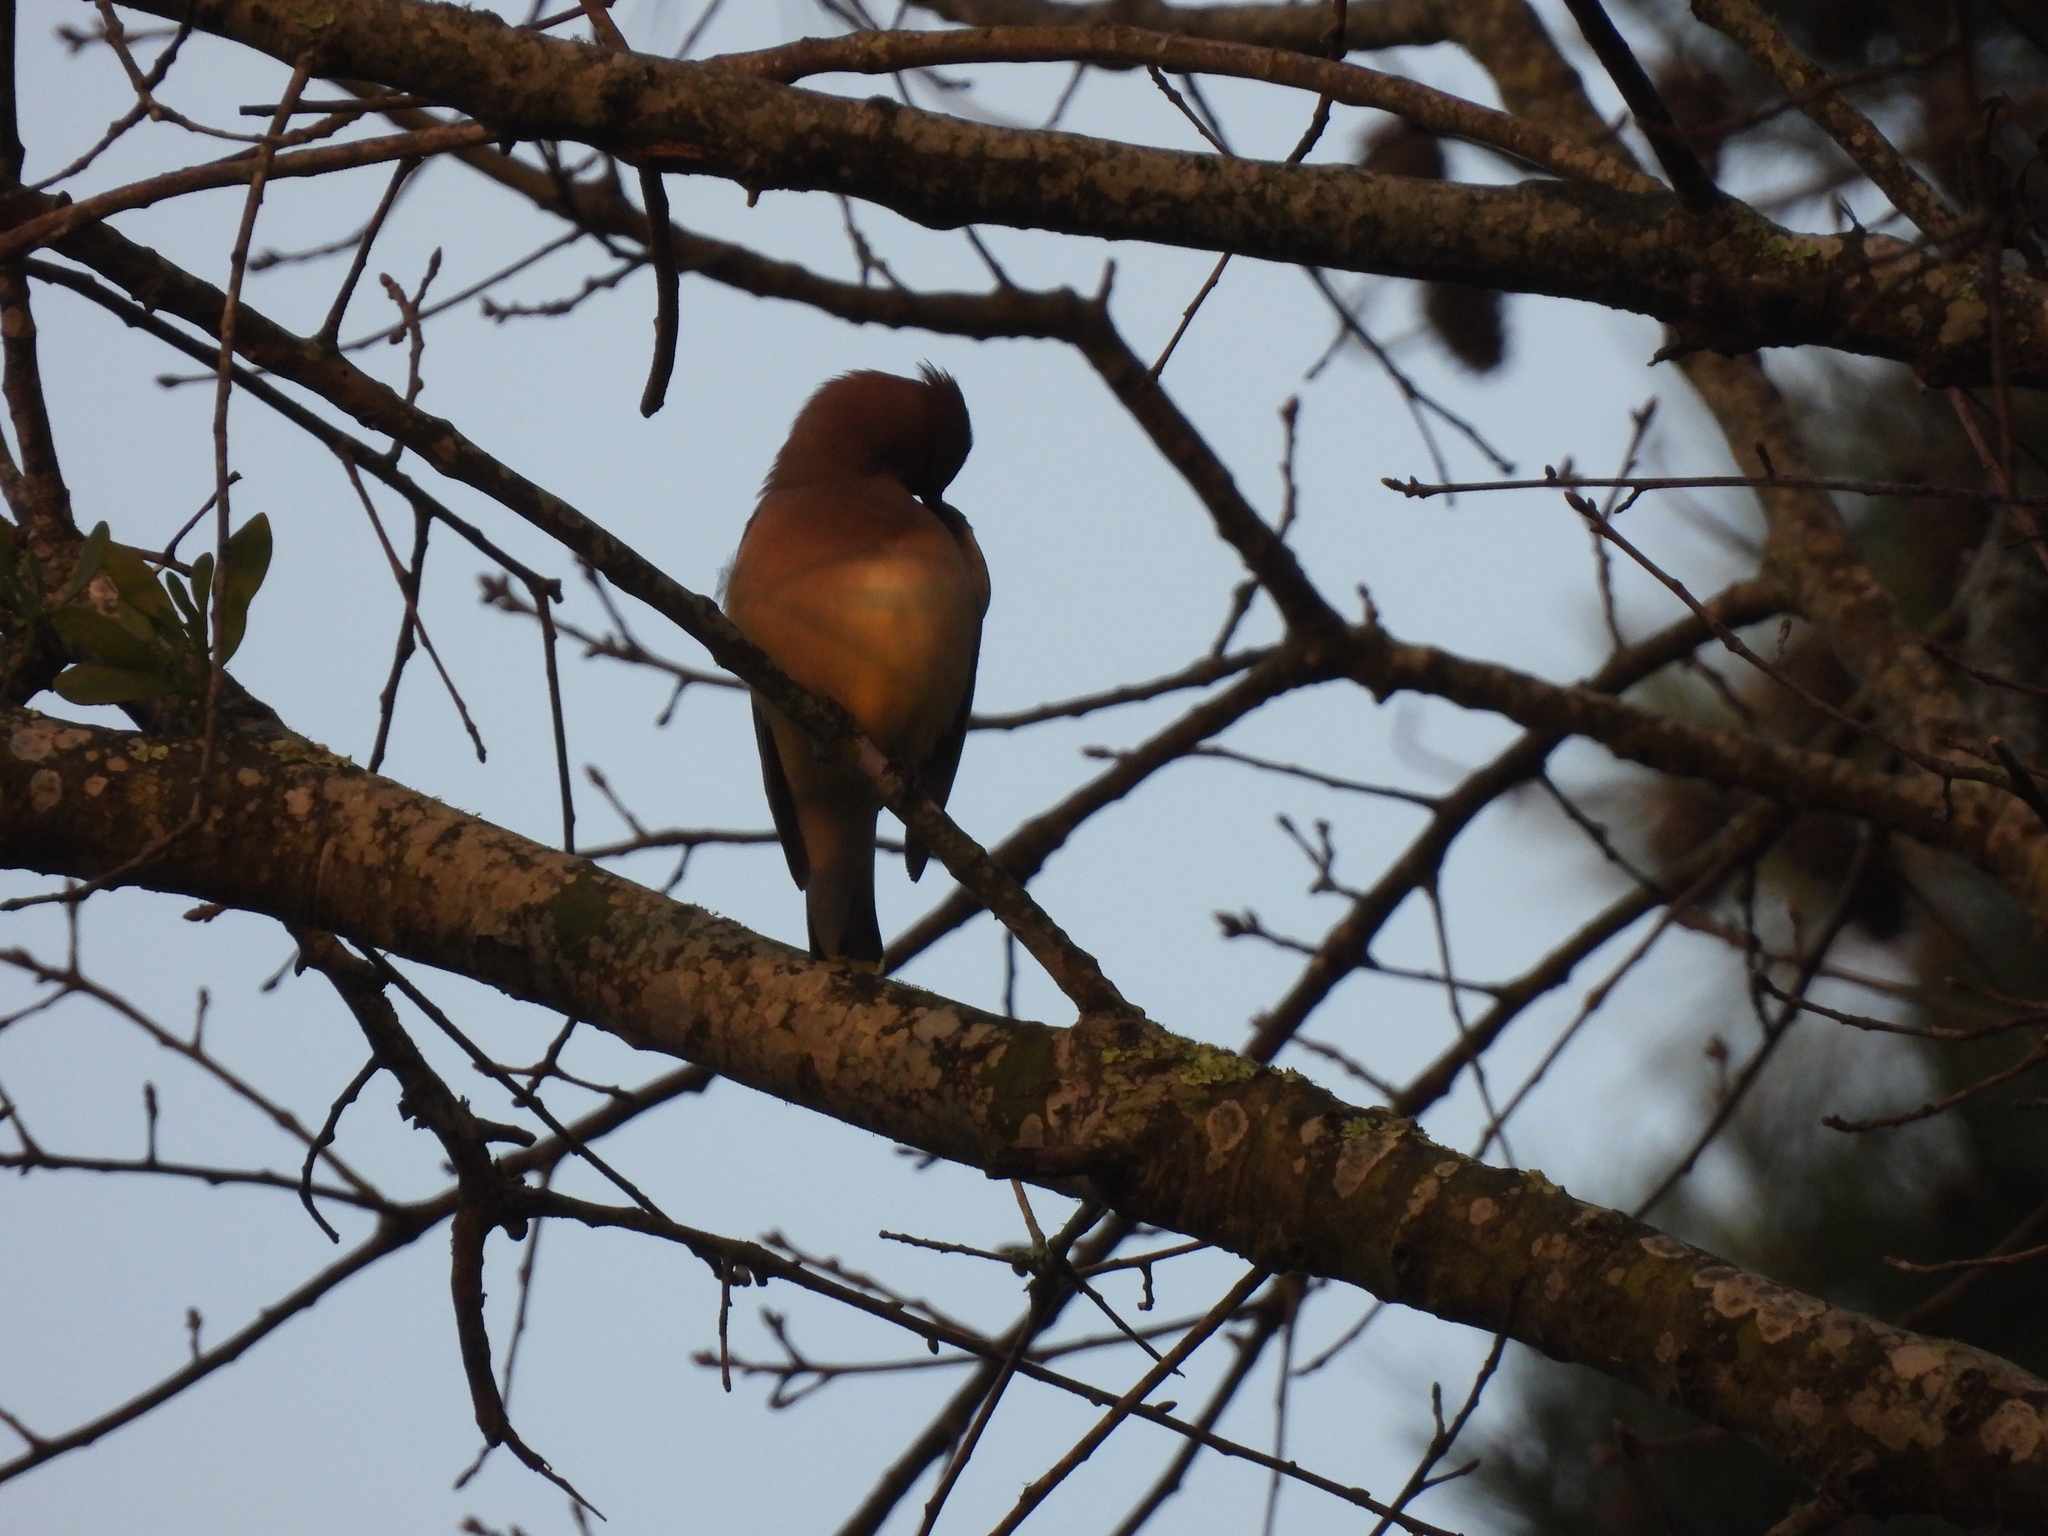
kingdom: Animalia
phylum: Chordata
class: Aves
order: Passeriformes
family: Bombycillidae
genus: Bombycilla
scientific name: Bombycilla cedrorum
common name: Cedar waxwing
